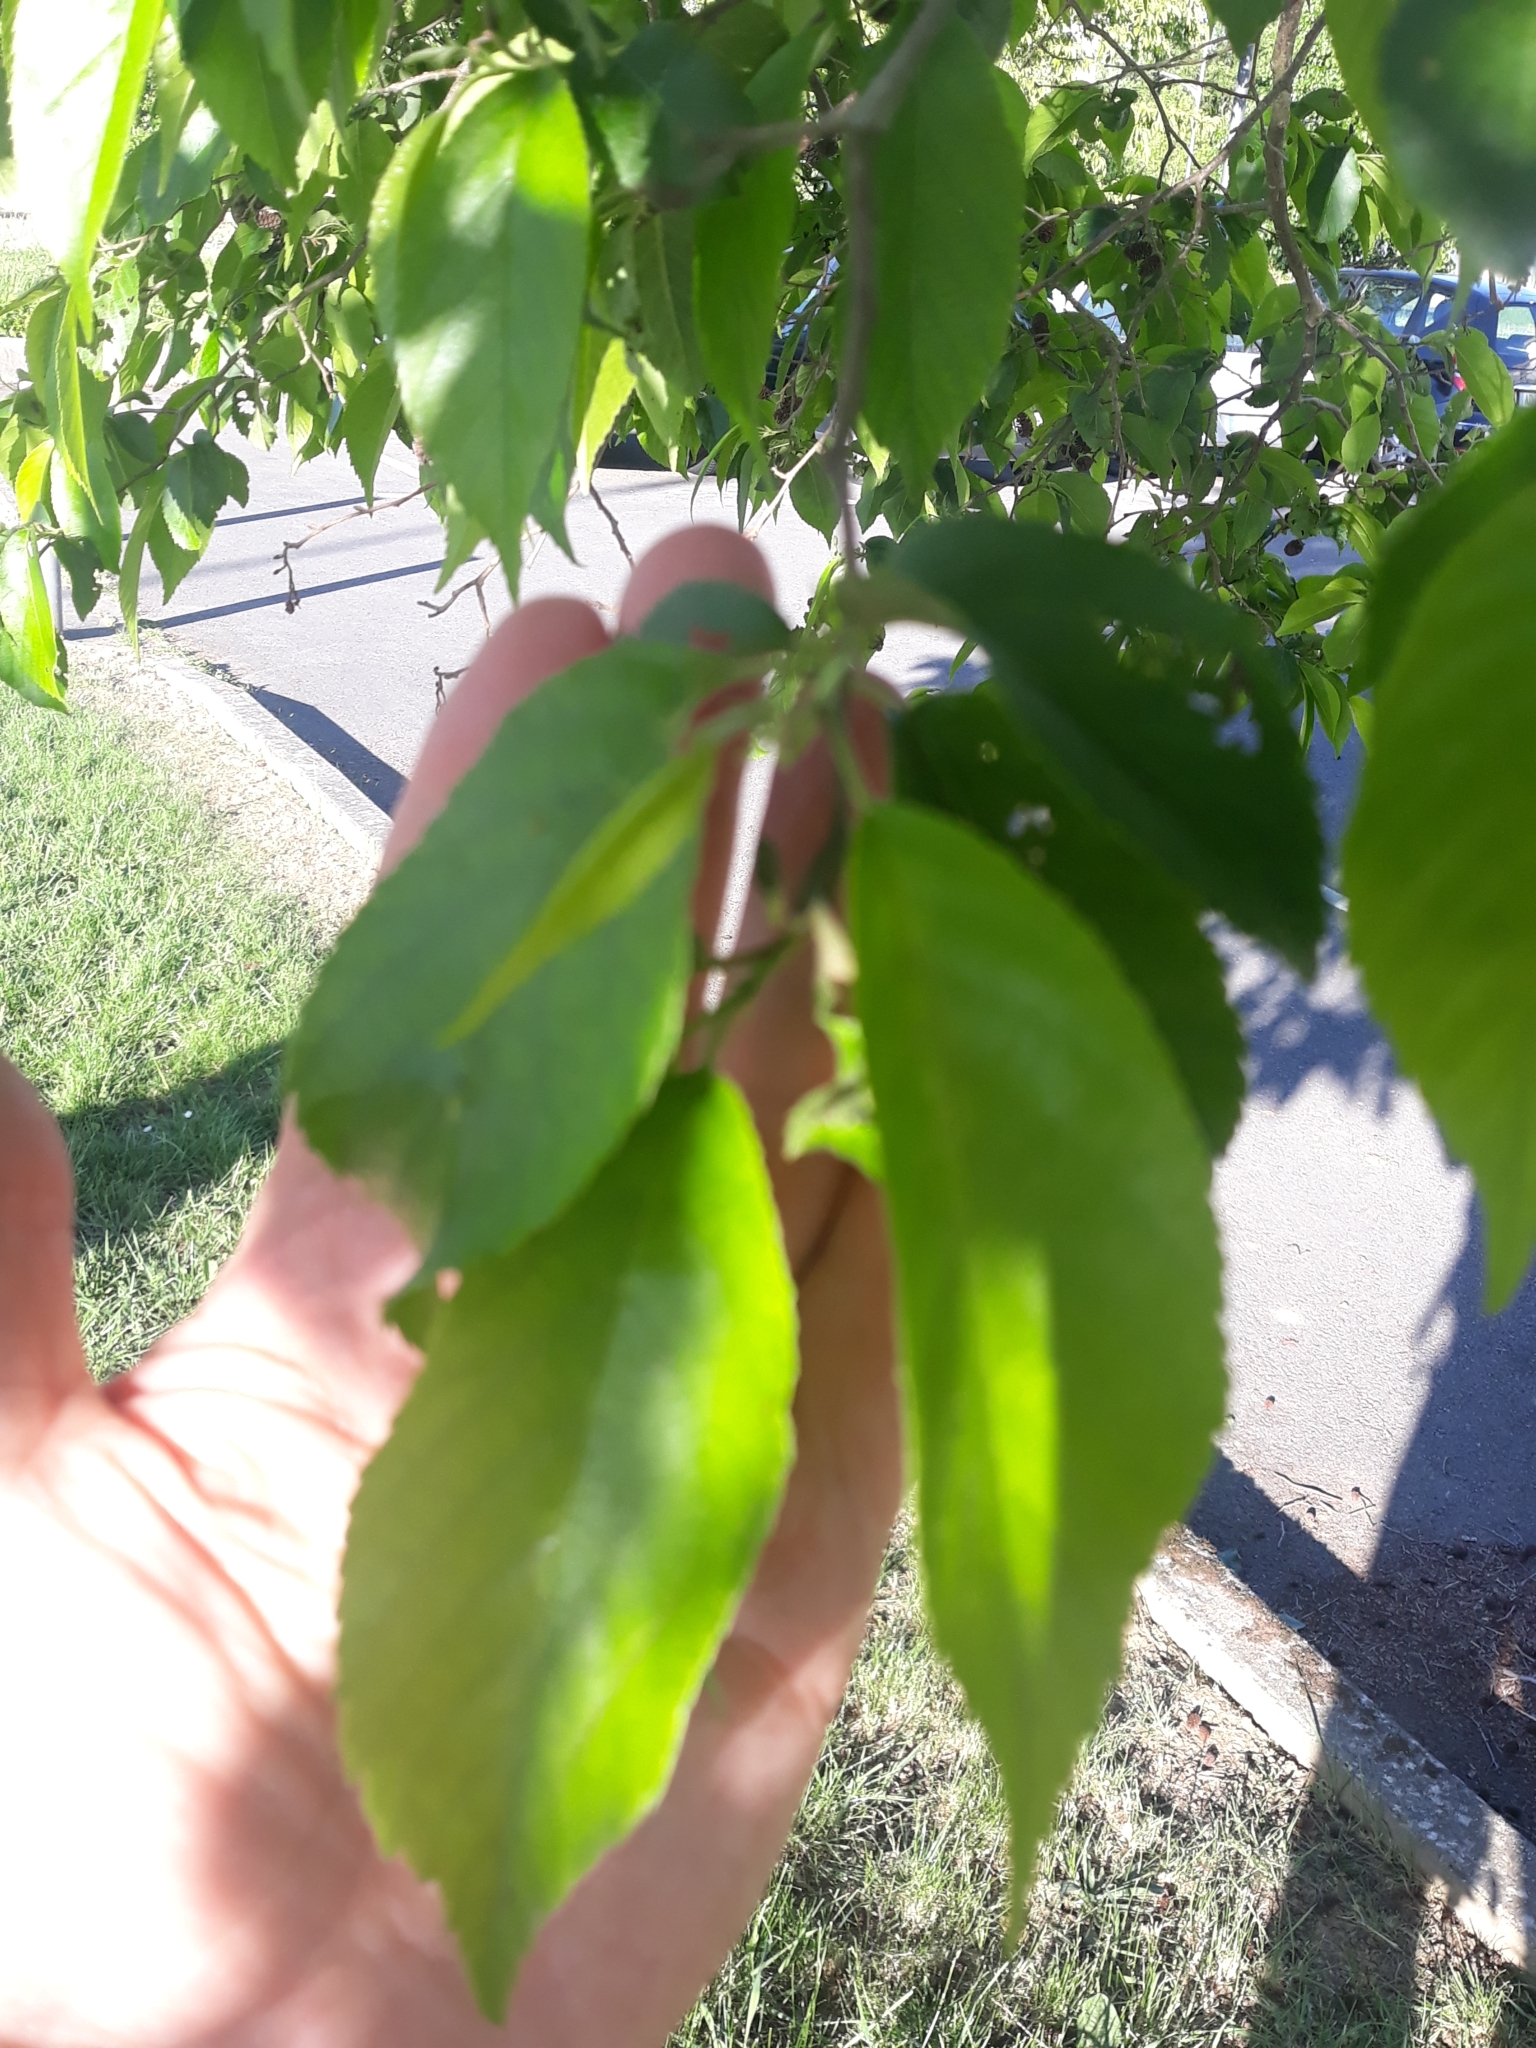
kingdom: Plantae
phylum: Tracheophyta
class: Magnoliopsida
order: Fagales
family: Betulaceae
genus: Alnus
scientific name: Alnus glutinosa
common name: Black alder
